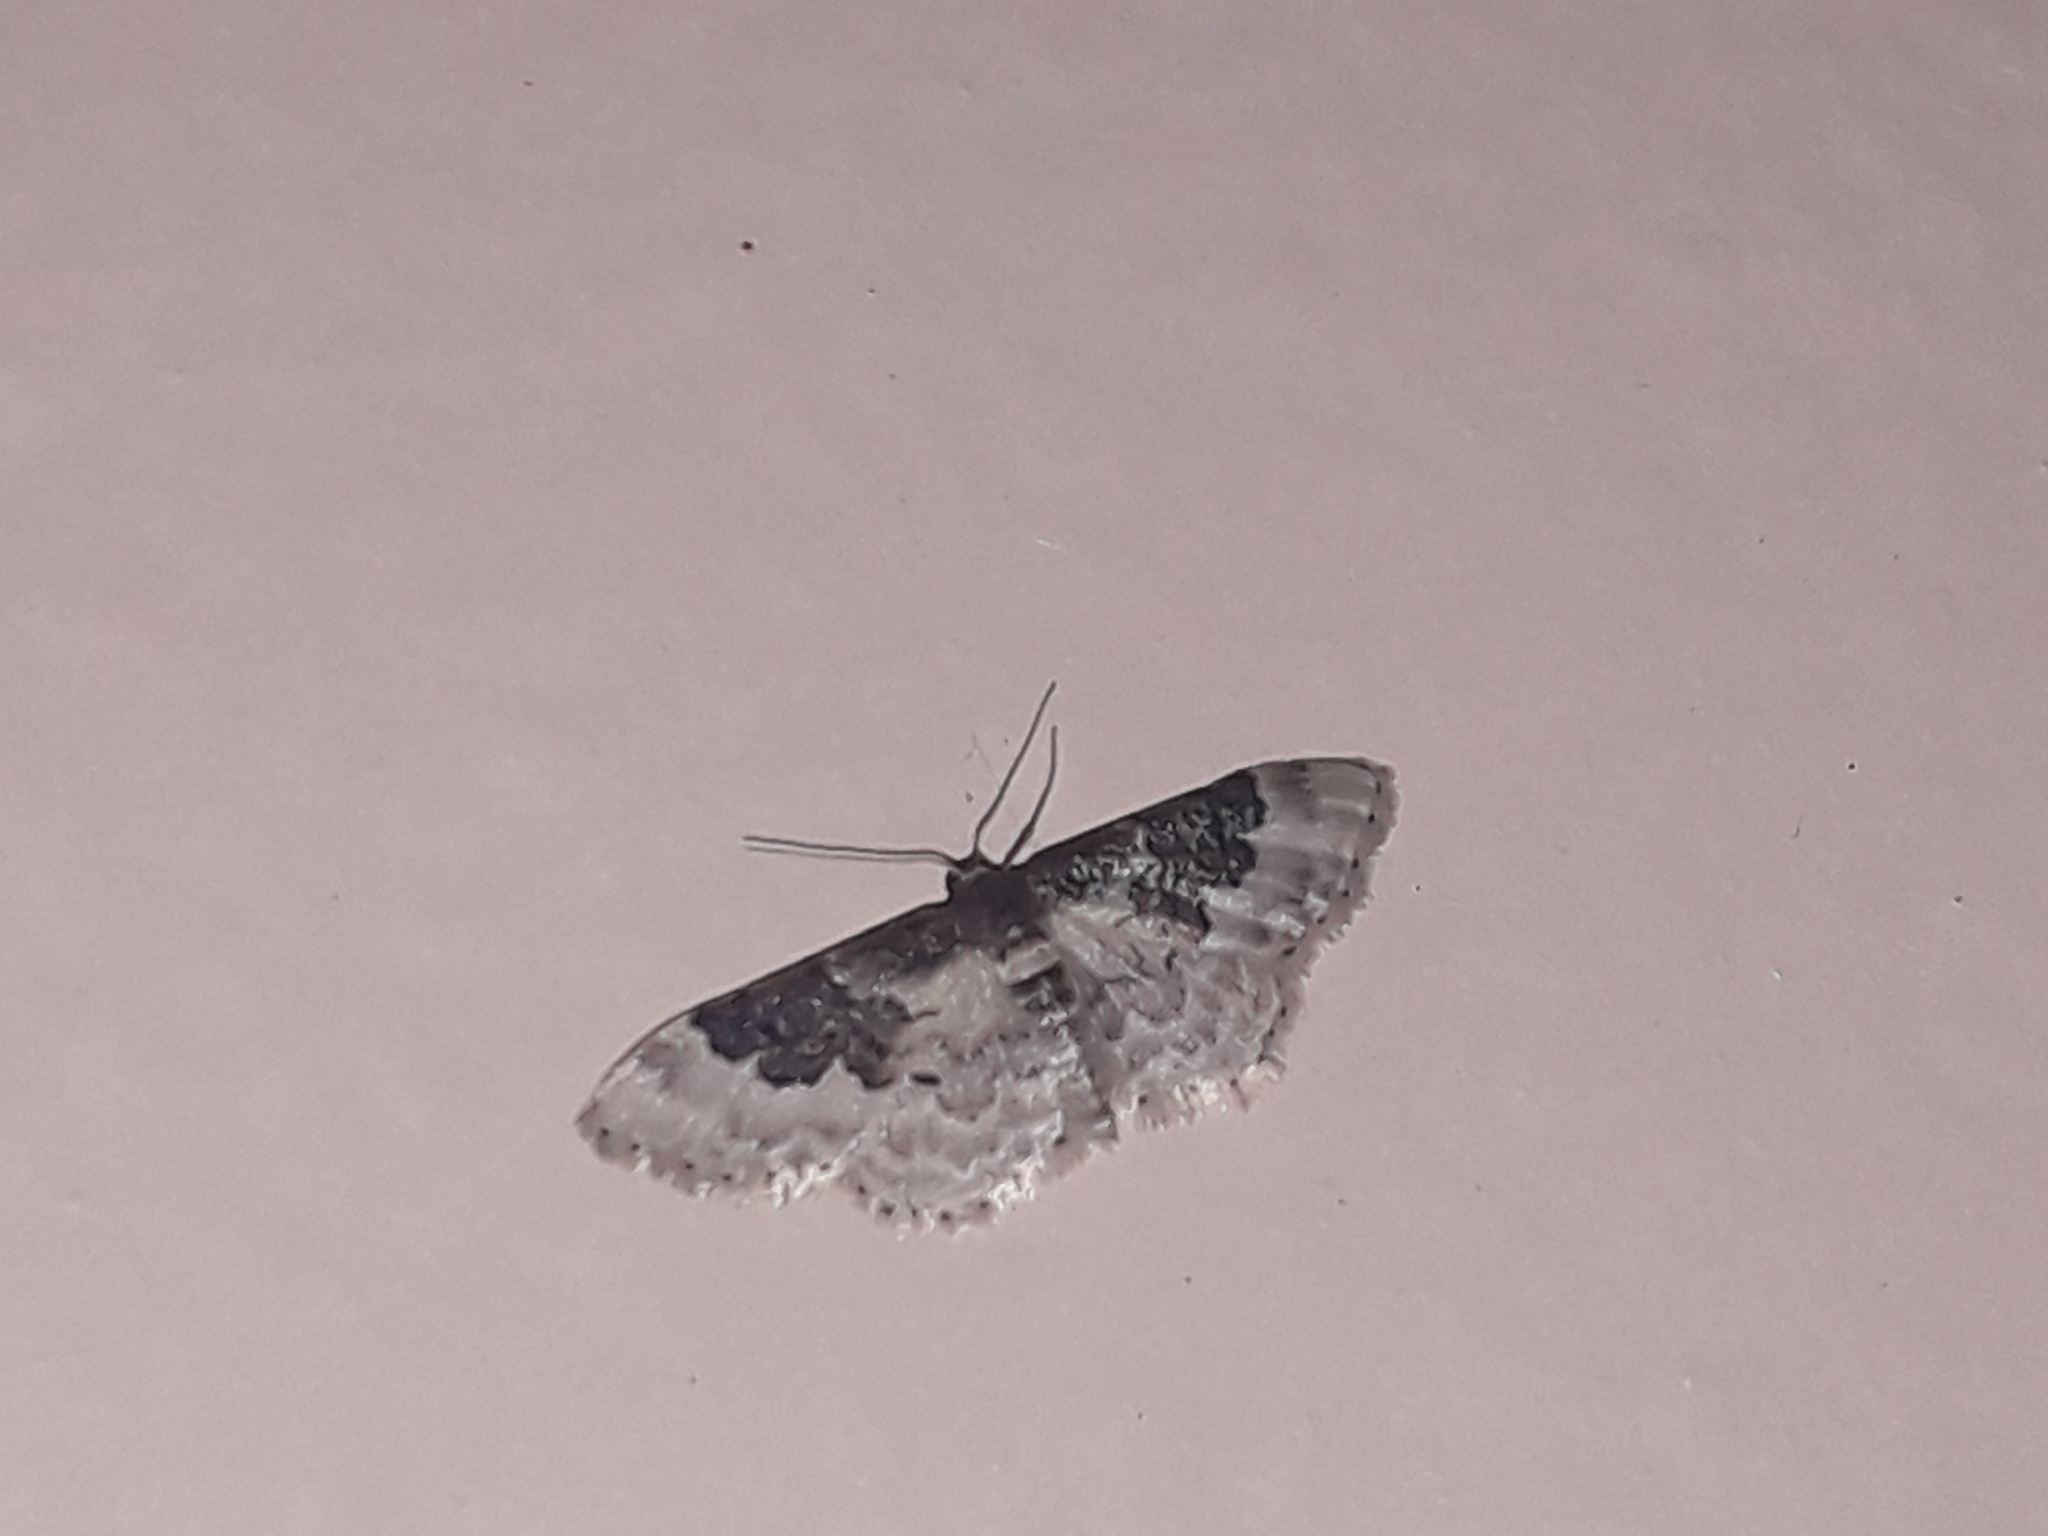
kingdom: Animalia
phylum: Arthropoda
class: Insecta
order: Lepidoptera
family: Geometridae
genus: Idaea
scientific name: Idaea rusticata
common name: Least carpet
